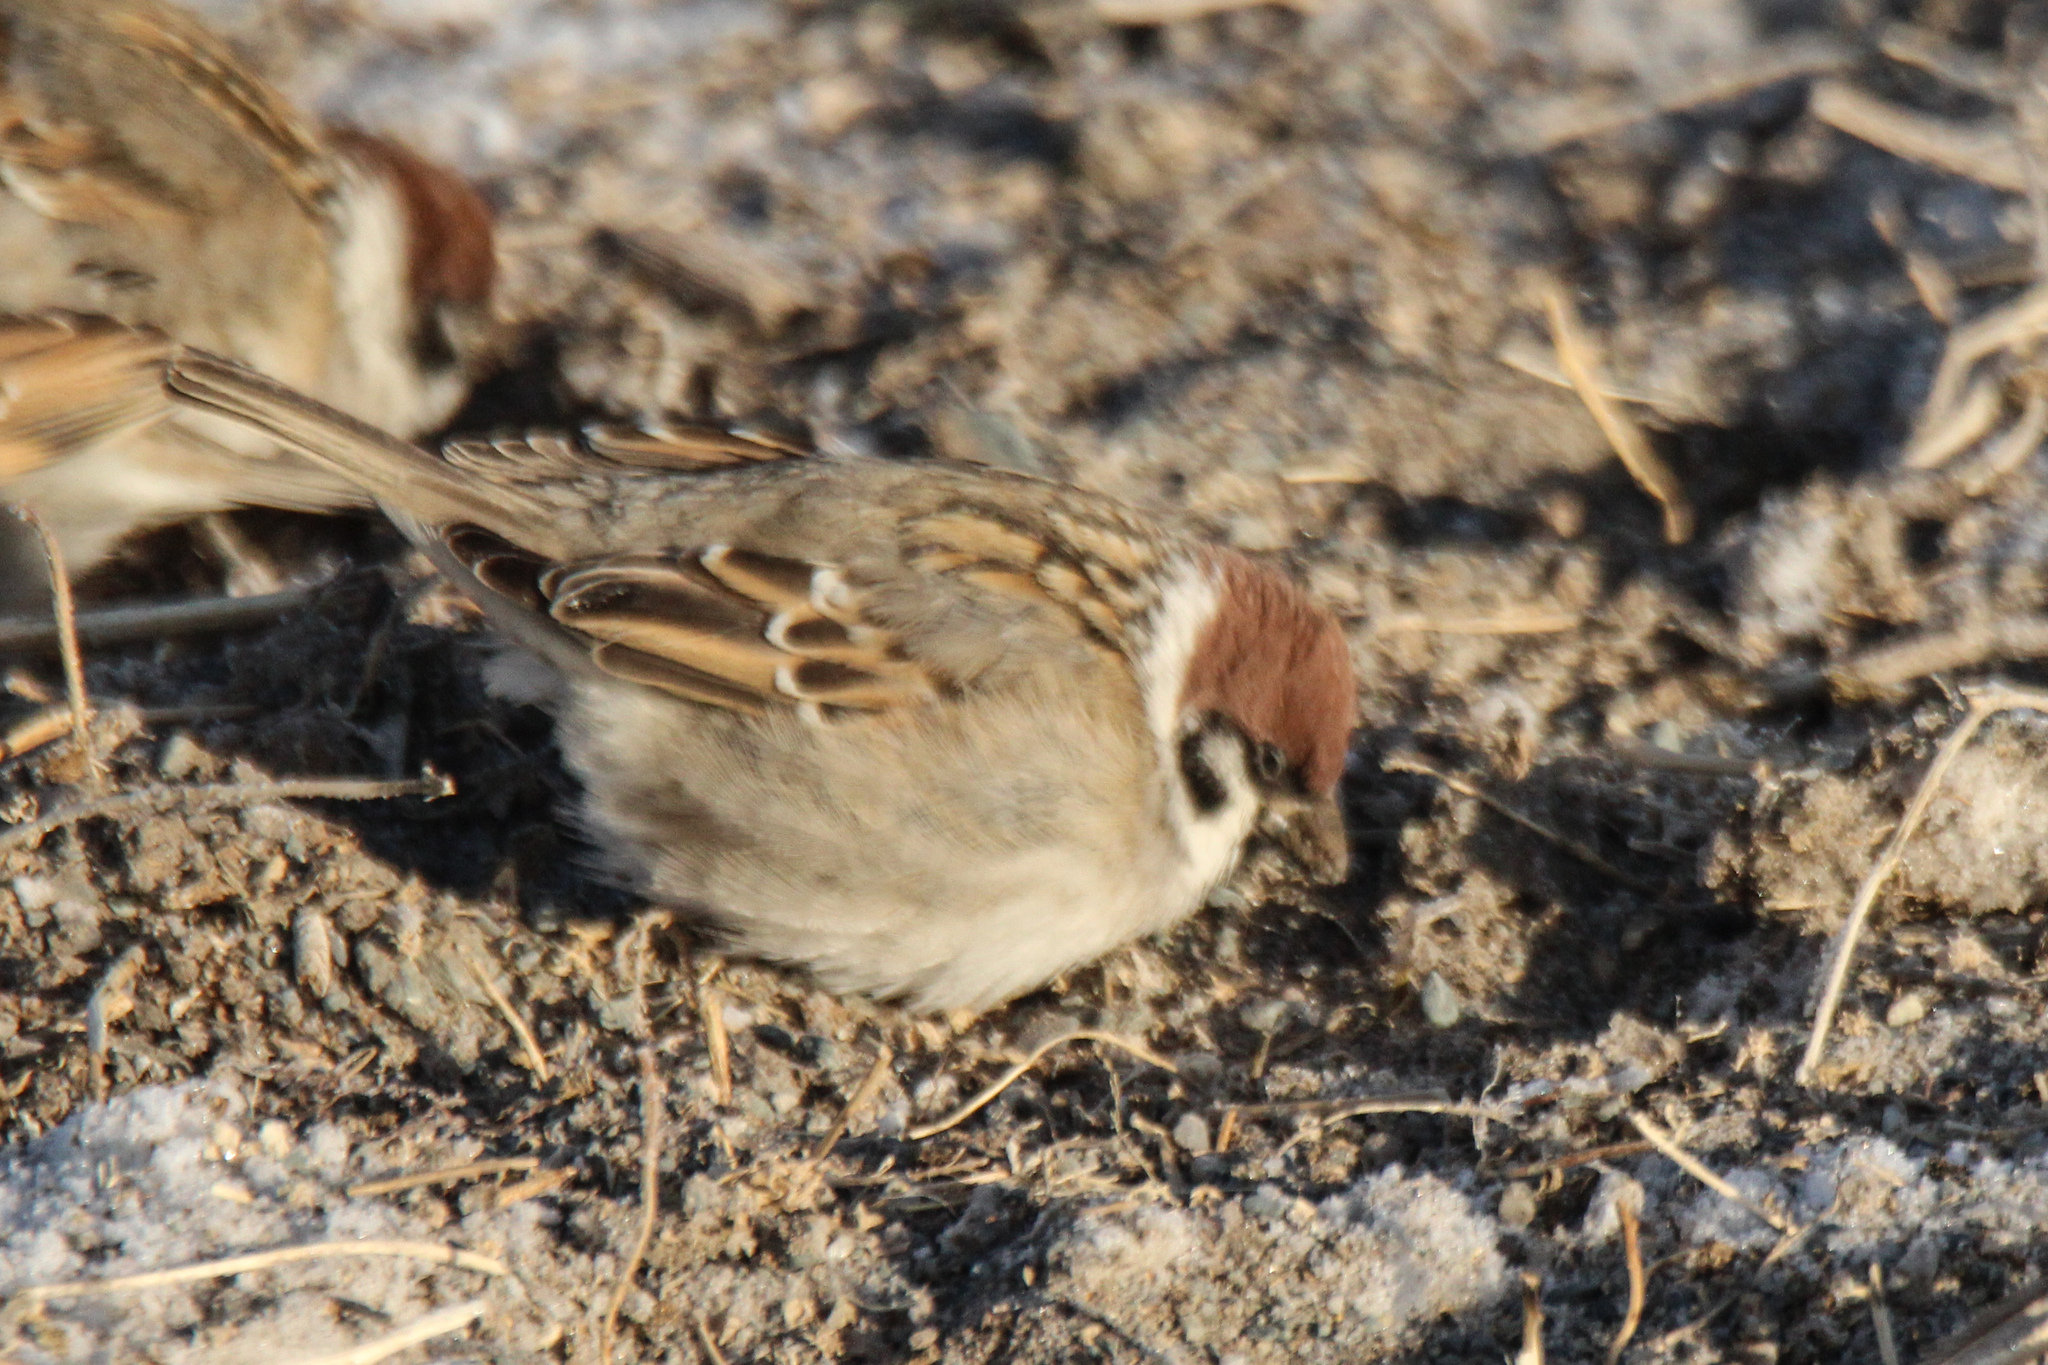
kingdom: Animalia
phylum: Chordata
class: Aves
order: Passeriformes
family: Passeridae
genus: Passer
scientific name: Passer montanus
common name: Eurasian tree sparrow
